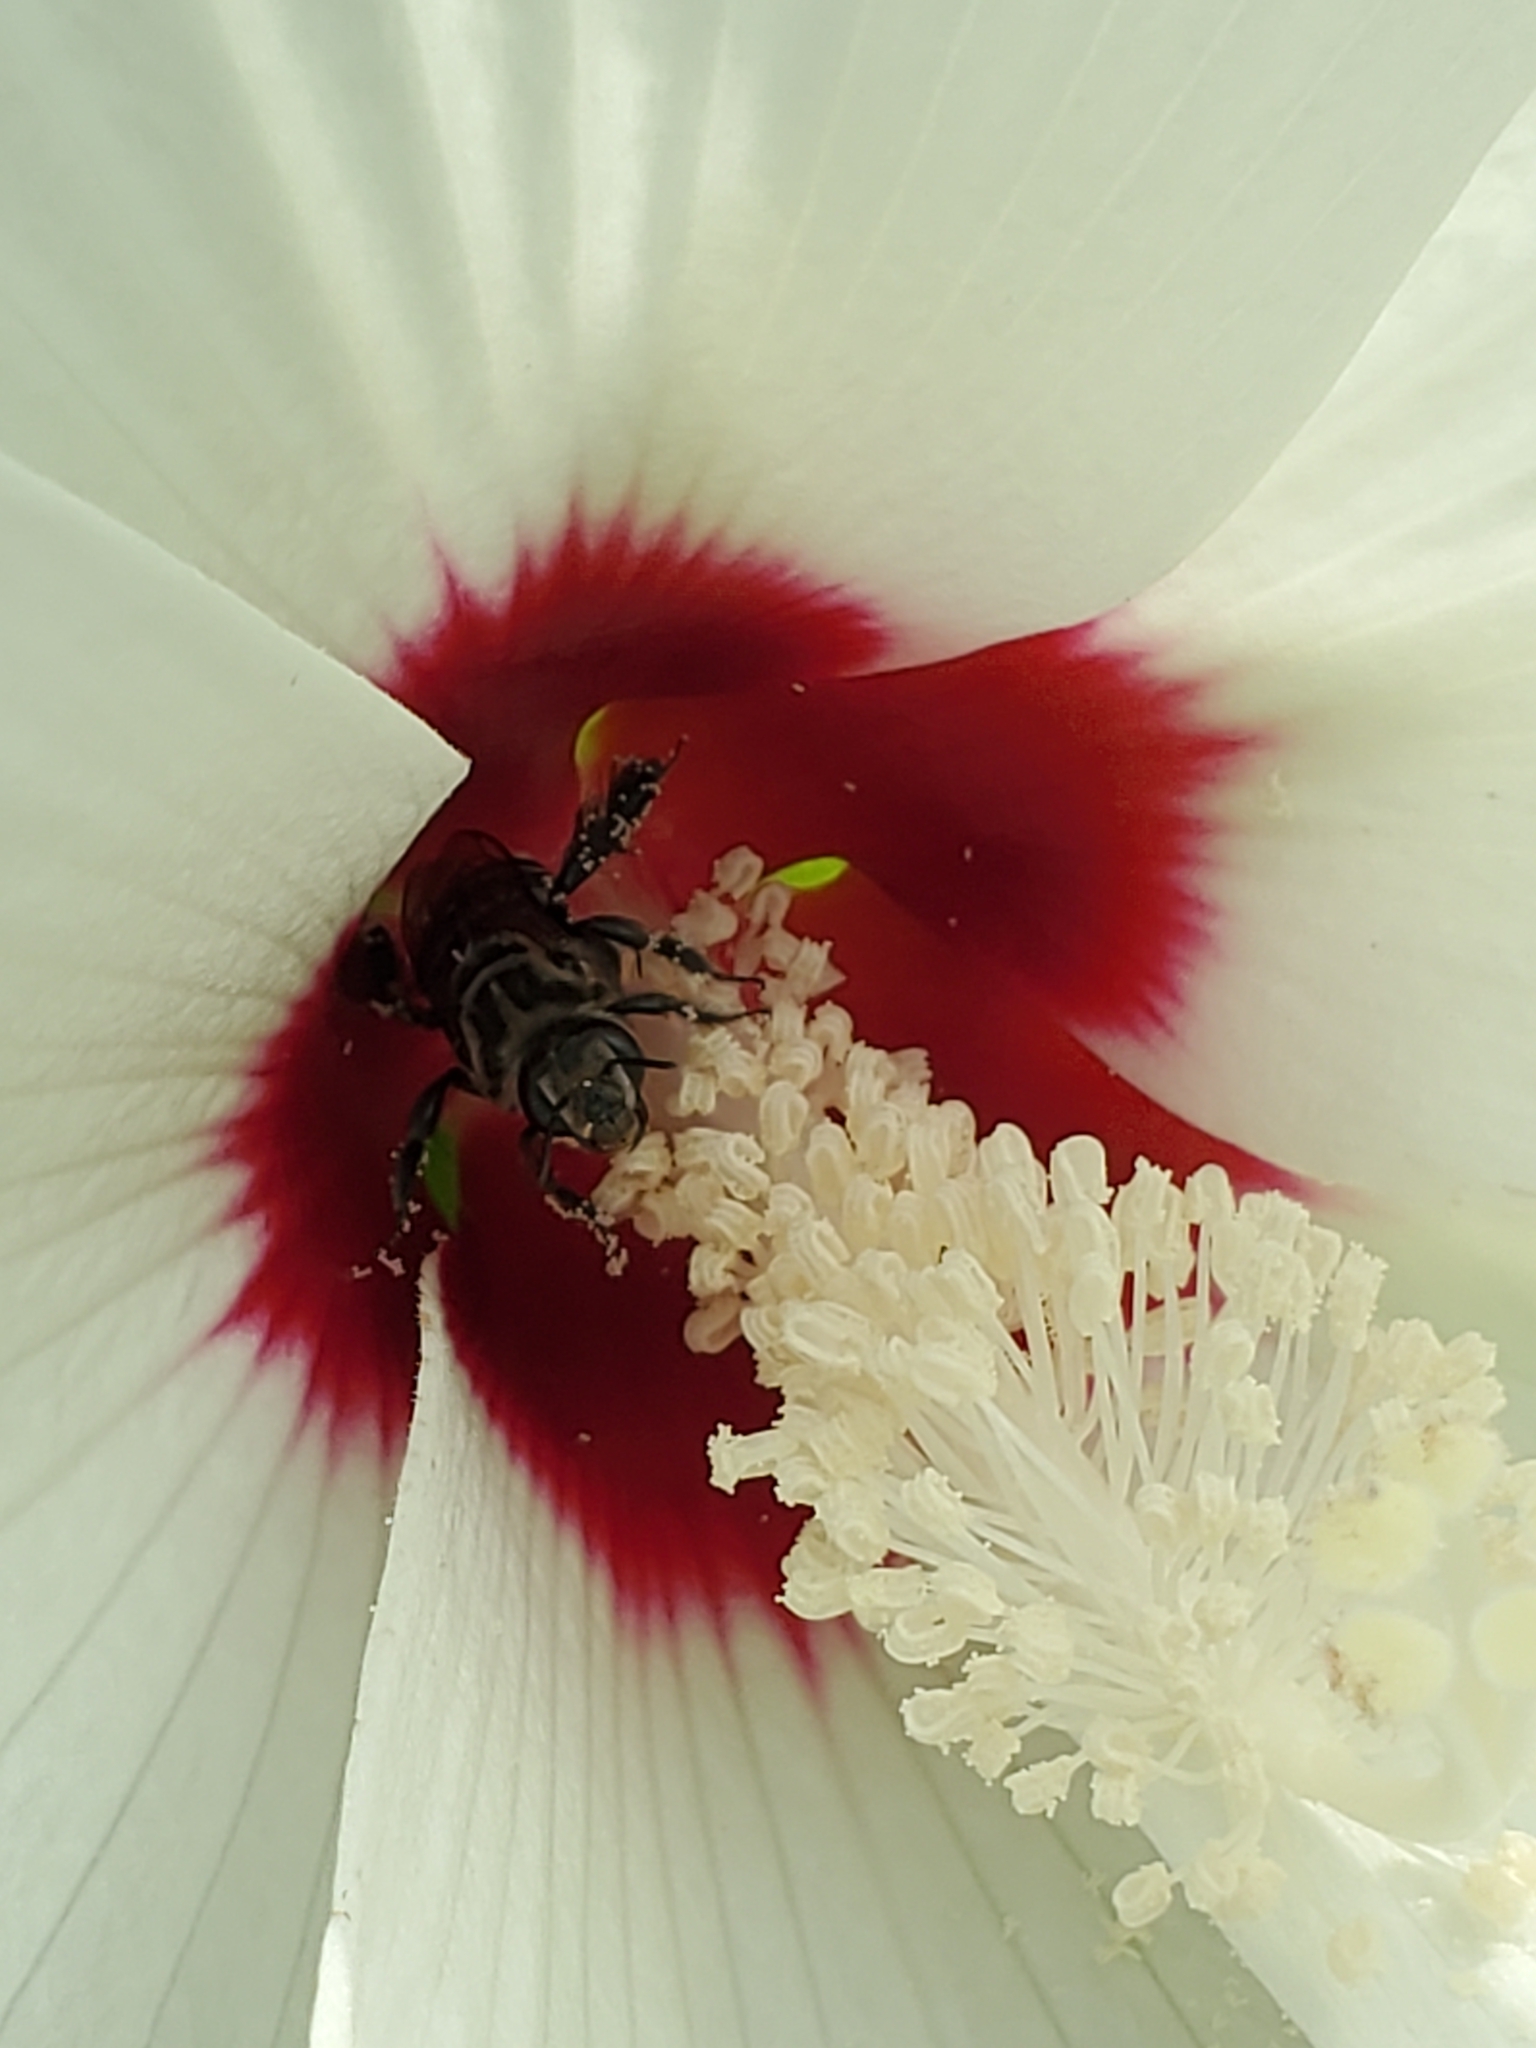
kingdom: Animalia
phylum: Arthropoda
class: Insecta
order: Hymenoptera
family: Apidae
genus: Melitoma
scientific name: Melitoma taurea
